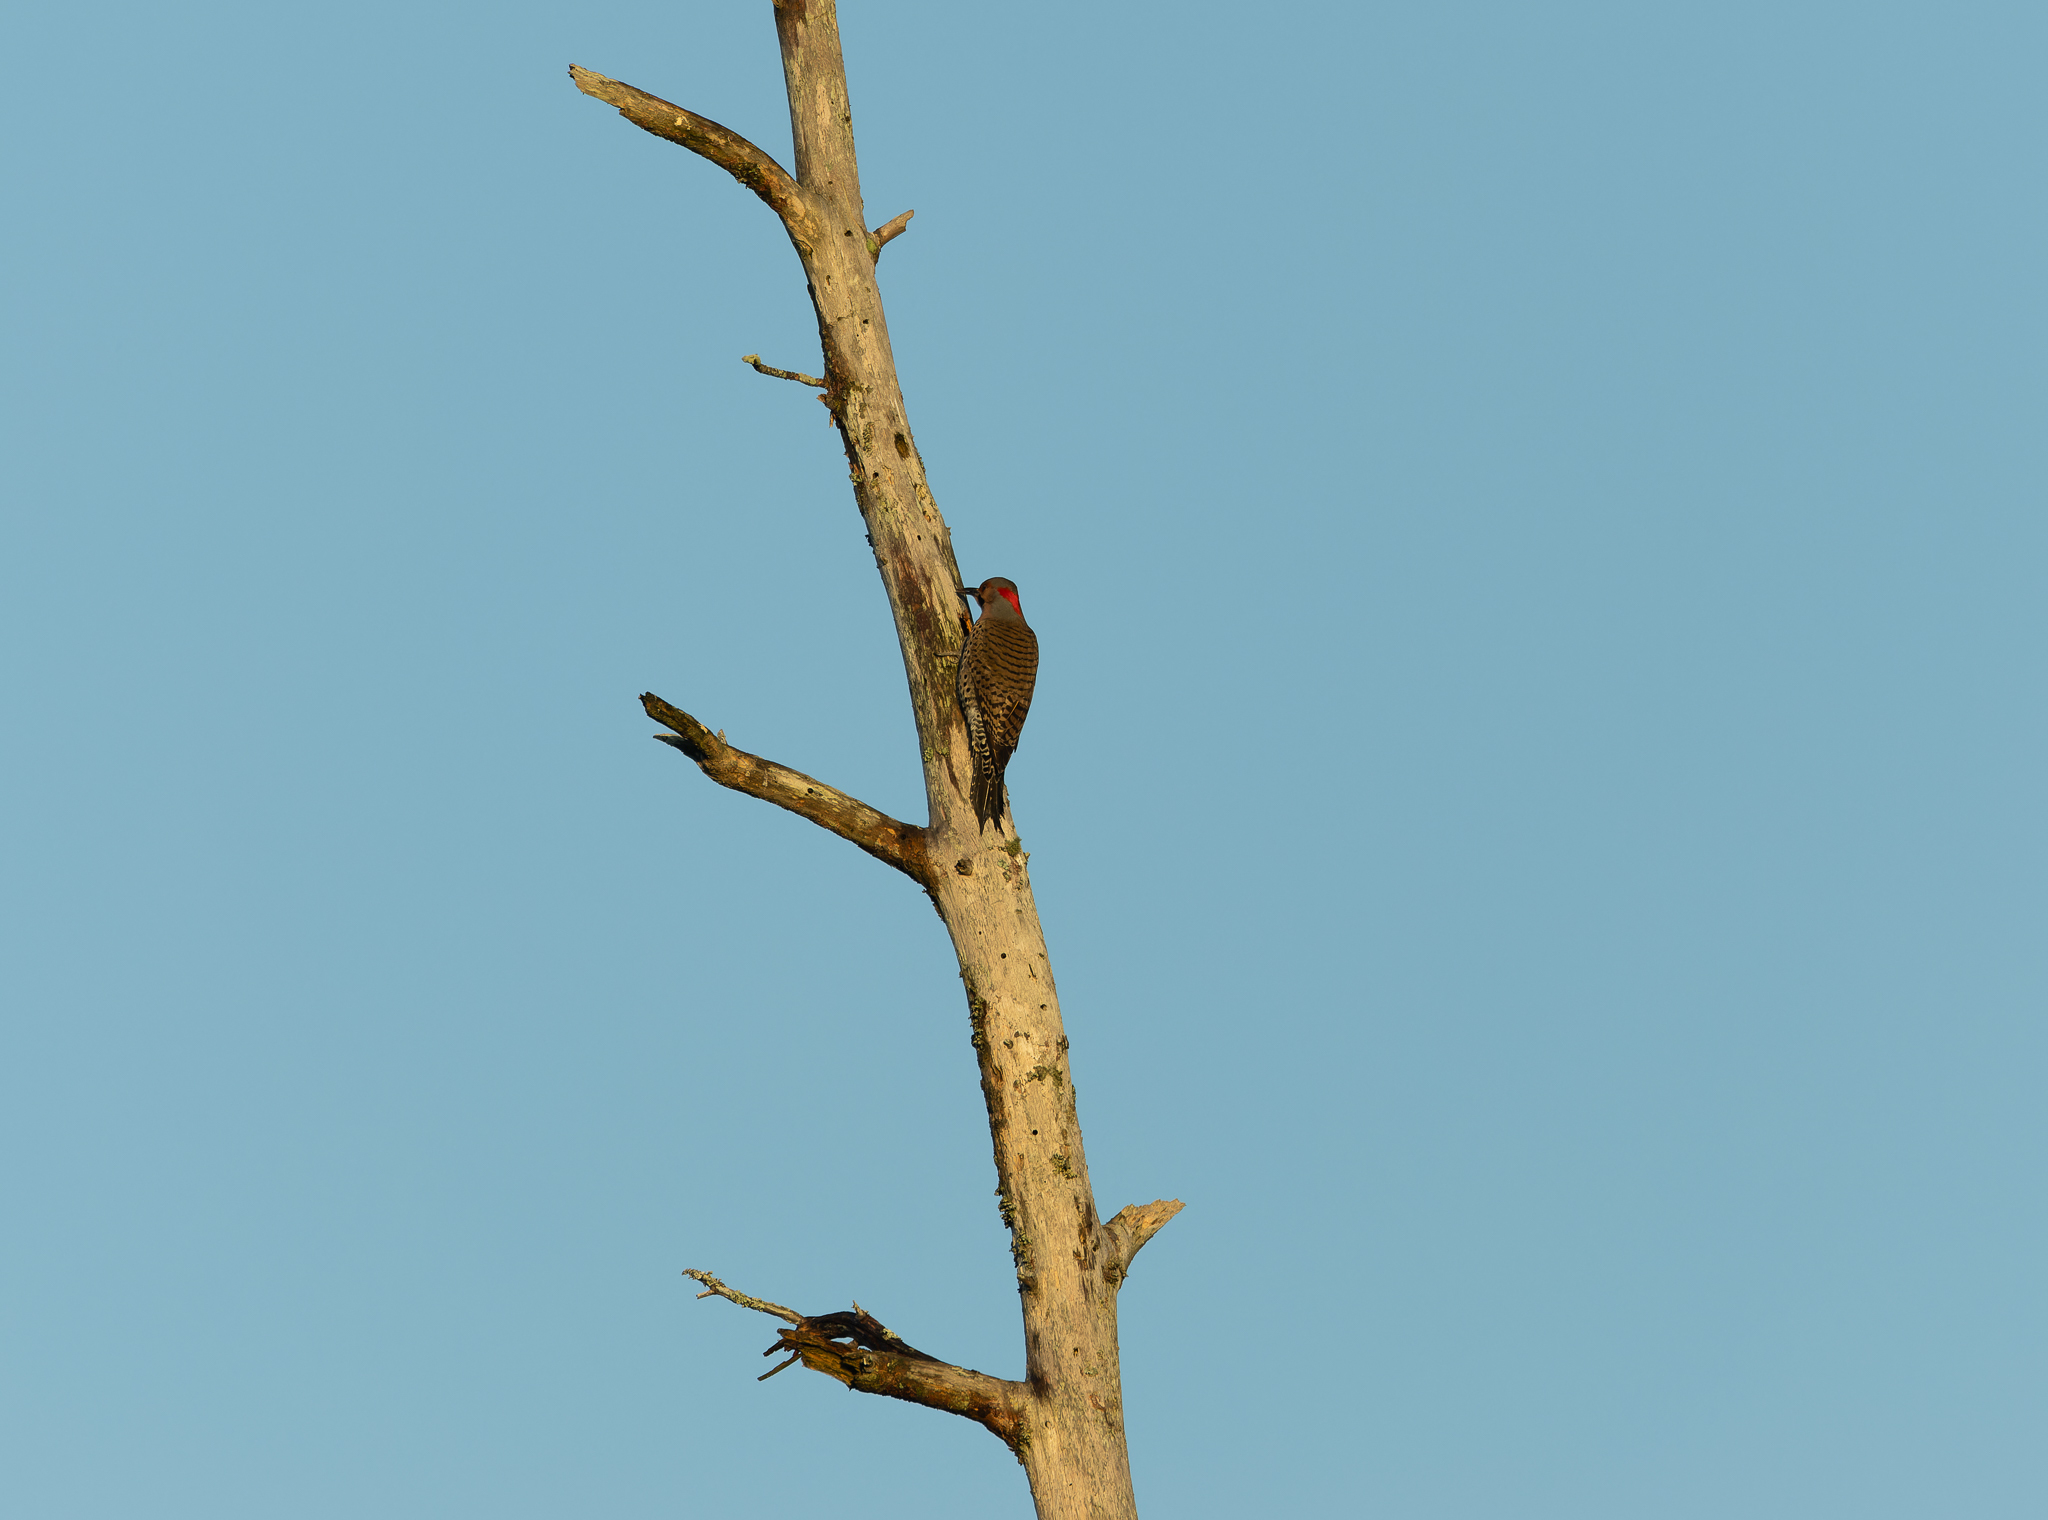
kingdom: Animalia
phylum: Chordata
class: Aves
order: Piciformes
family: Picidae
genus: Colaptes
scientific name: Colaptes auratus
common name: Northern flicker
